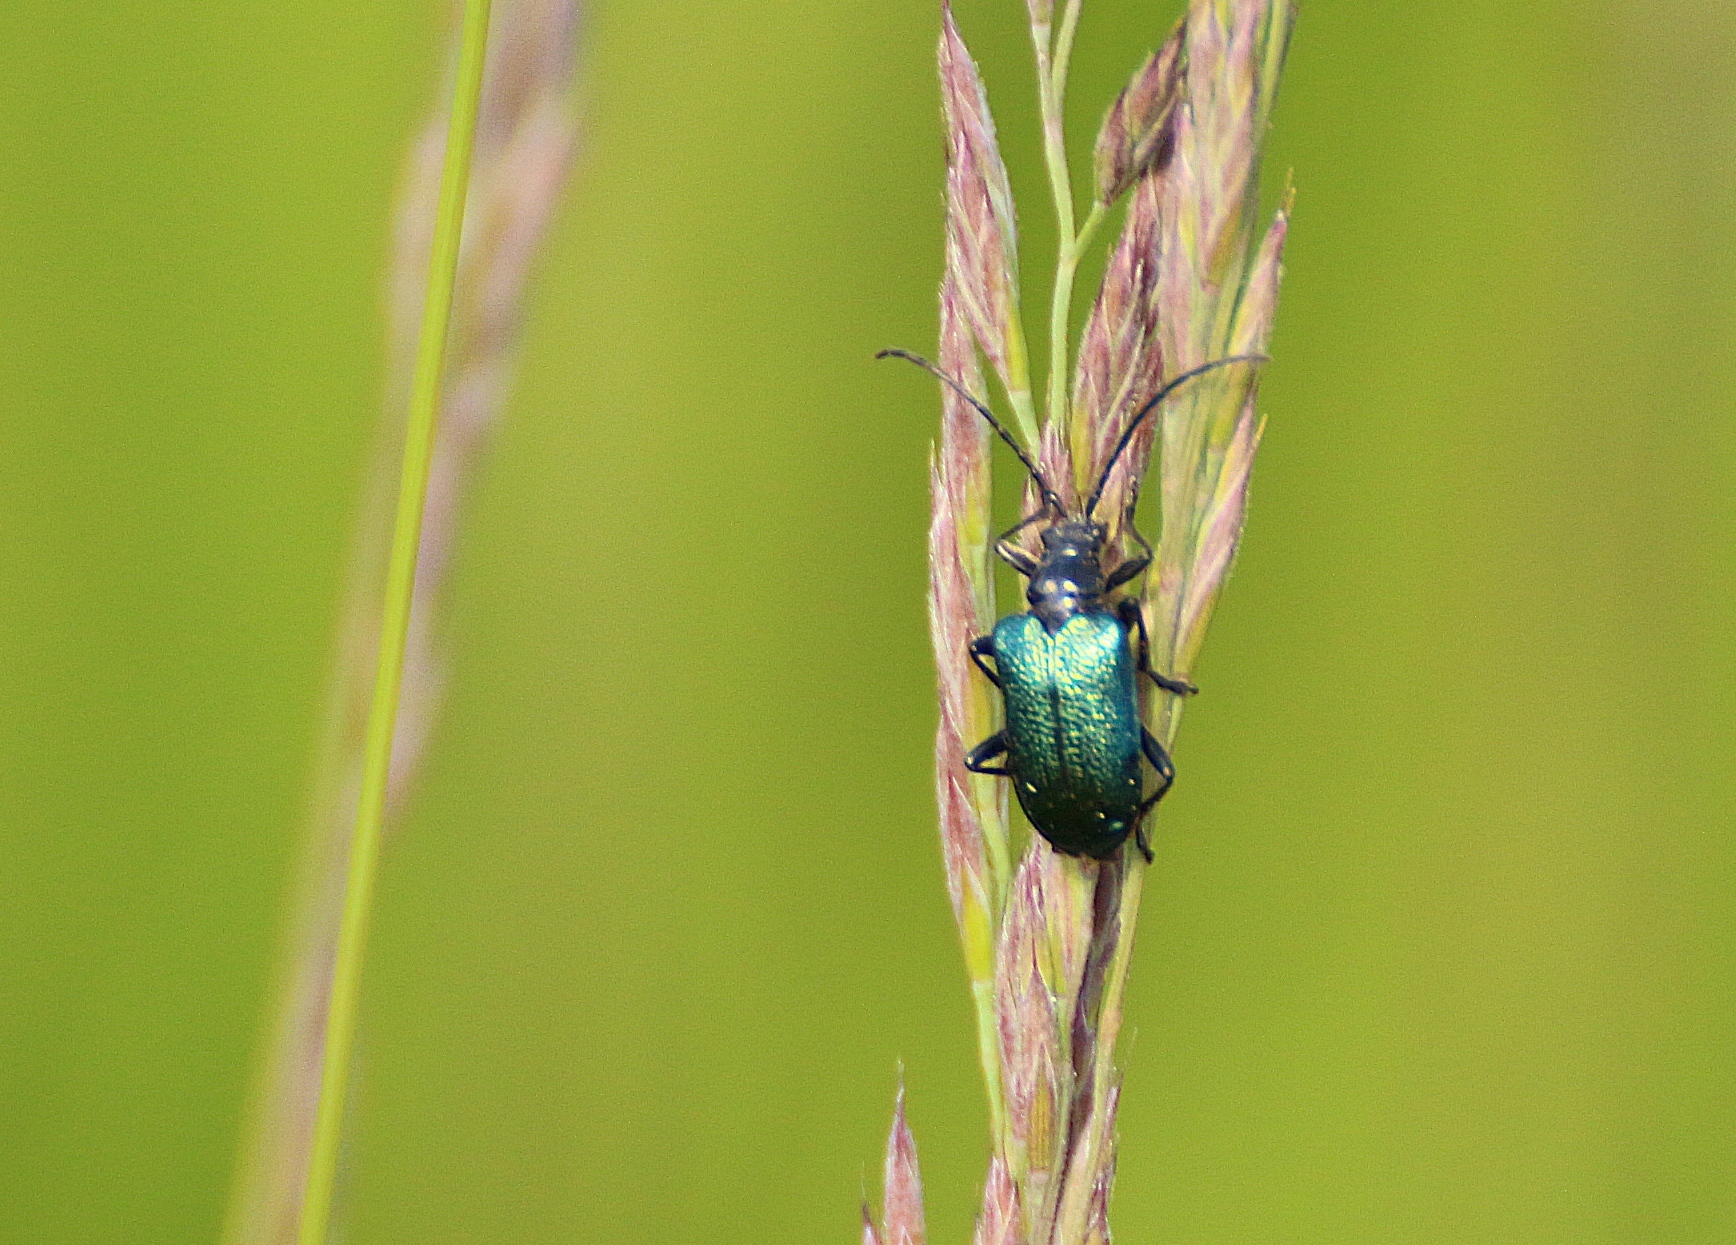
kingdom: Animalia
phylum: Arthropoda
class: Insecta
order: Coleoptera
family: Cerambycidae
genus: Gaurotes
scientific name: Gaurotes virginea
